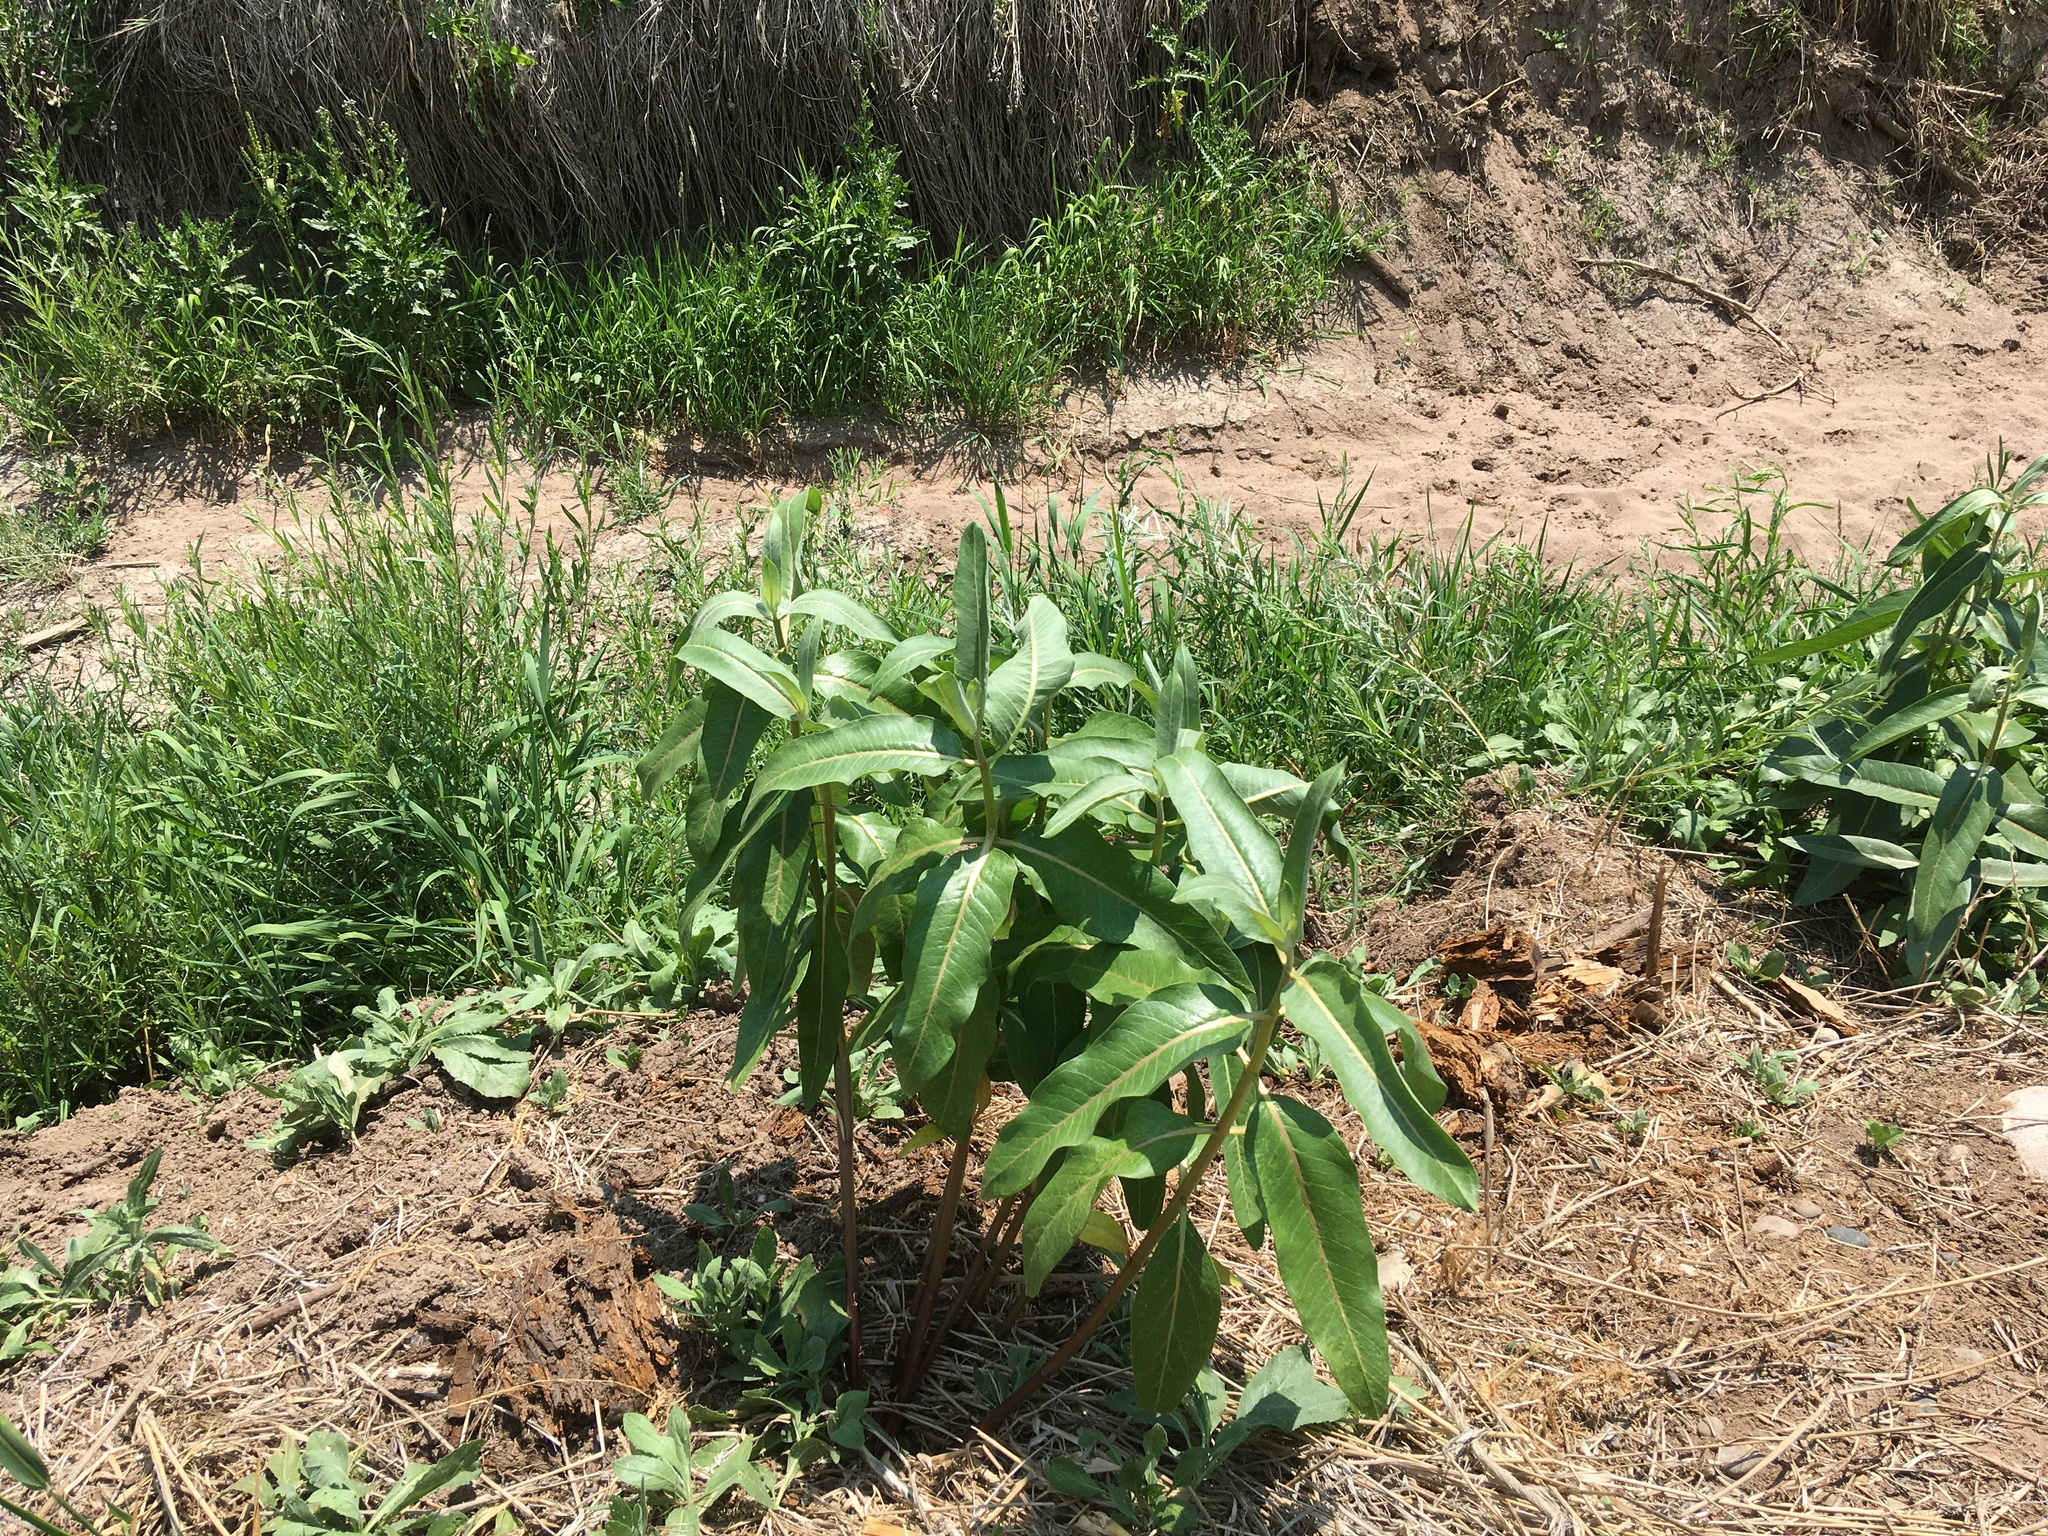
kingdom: Plantae
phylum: Tracheophyta
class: Magnoliopsida
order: Gentianales
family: Apocynaceae
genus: Asclepias
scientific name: Asclepias speciosa
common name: Showy milkweed
